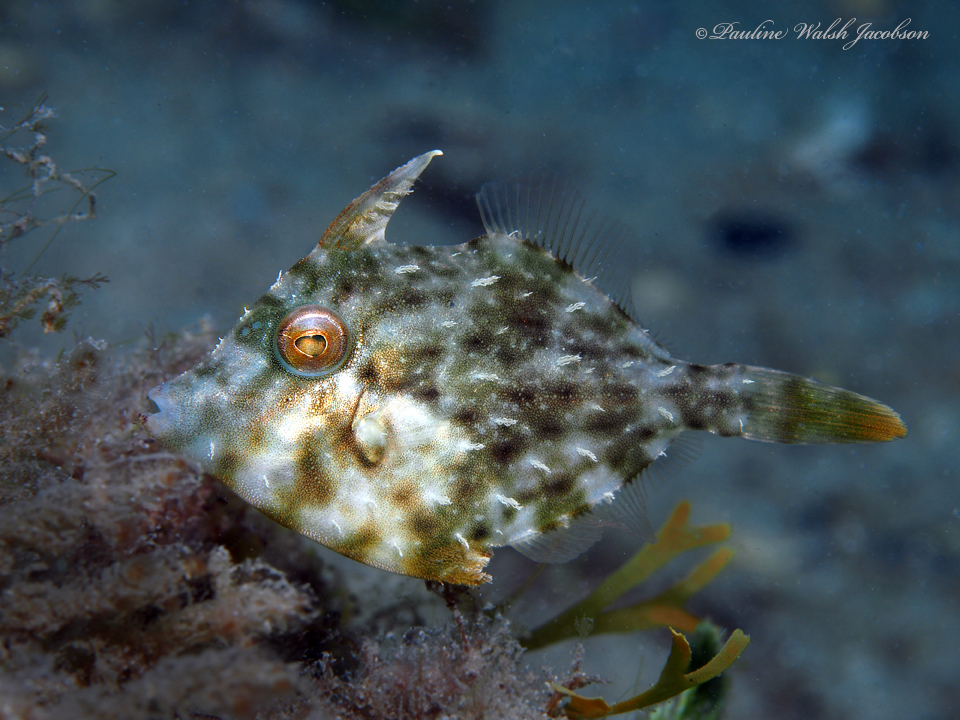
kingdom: Animalia
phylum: Chordata
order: Tetraodontiformes
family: Monacanthidae
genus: Stephanolepis
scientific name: Stephanolepis hispidus
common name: Planehead filefish
